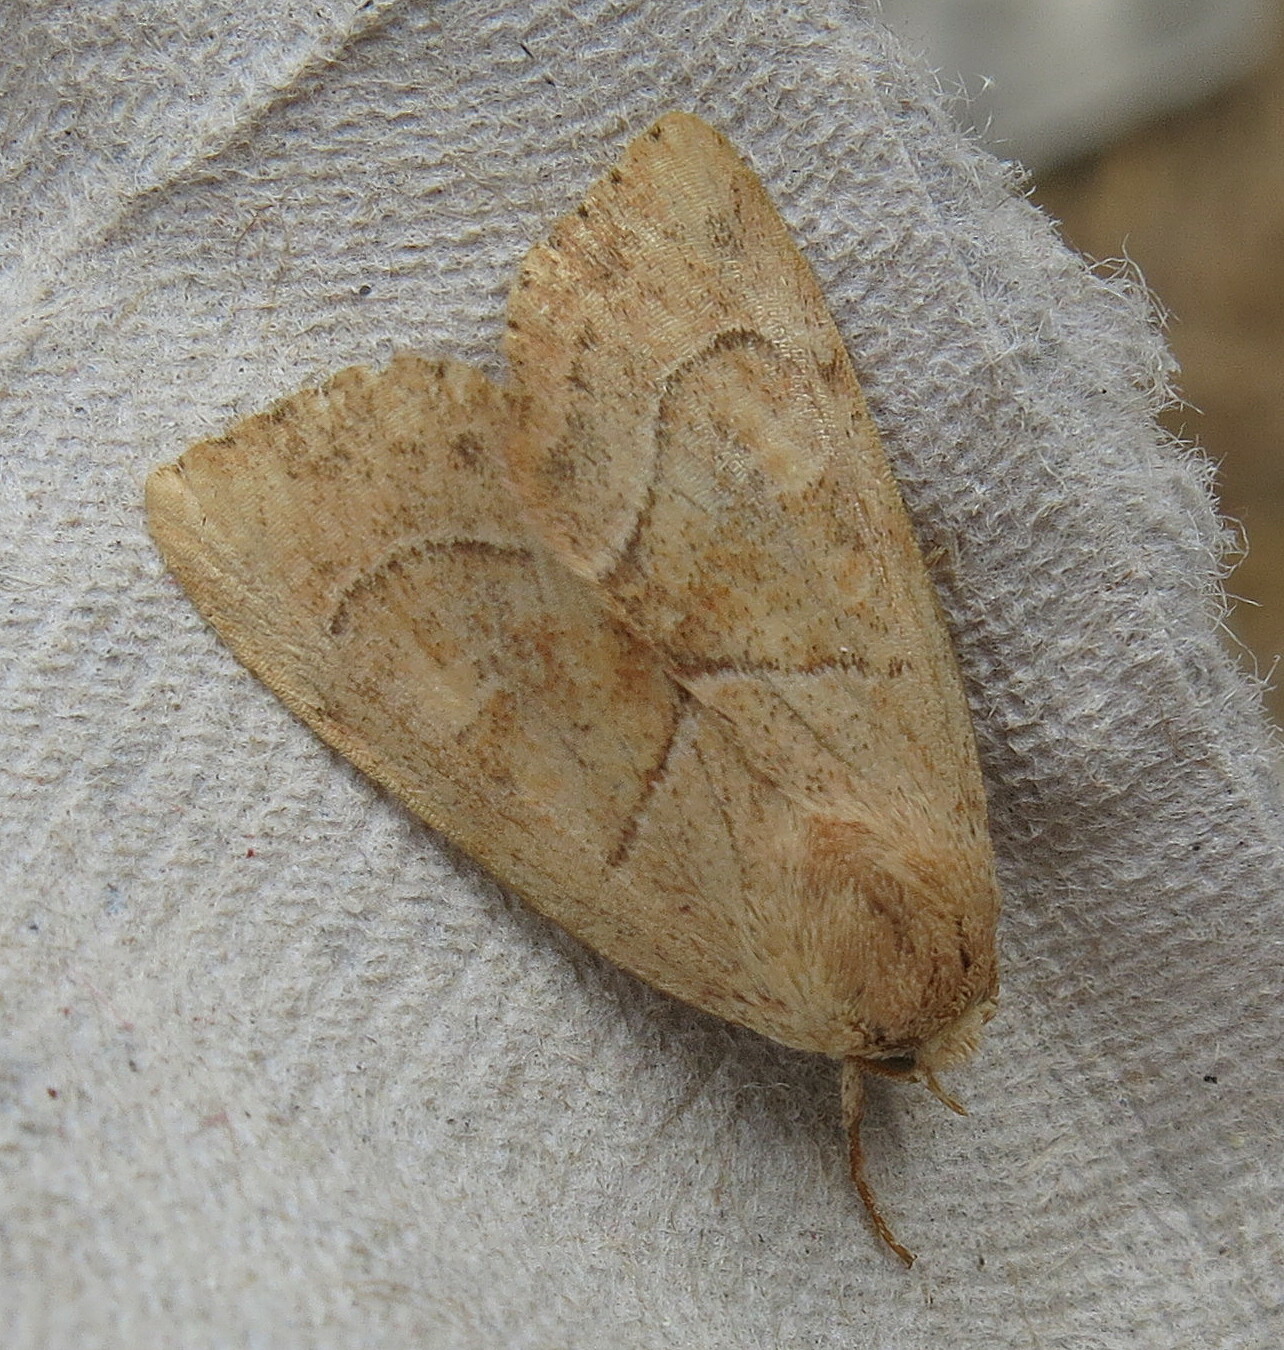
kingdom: Animalia
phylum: Arthropoda
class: Insecta
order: Lepidoptera
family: Noctuidae
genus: Cosmia
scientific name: Cosmia trapezina
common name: Dun-bar
